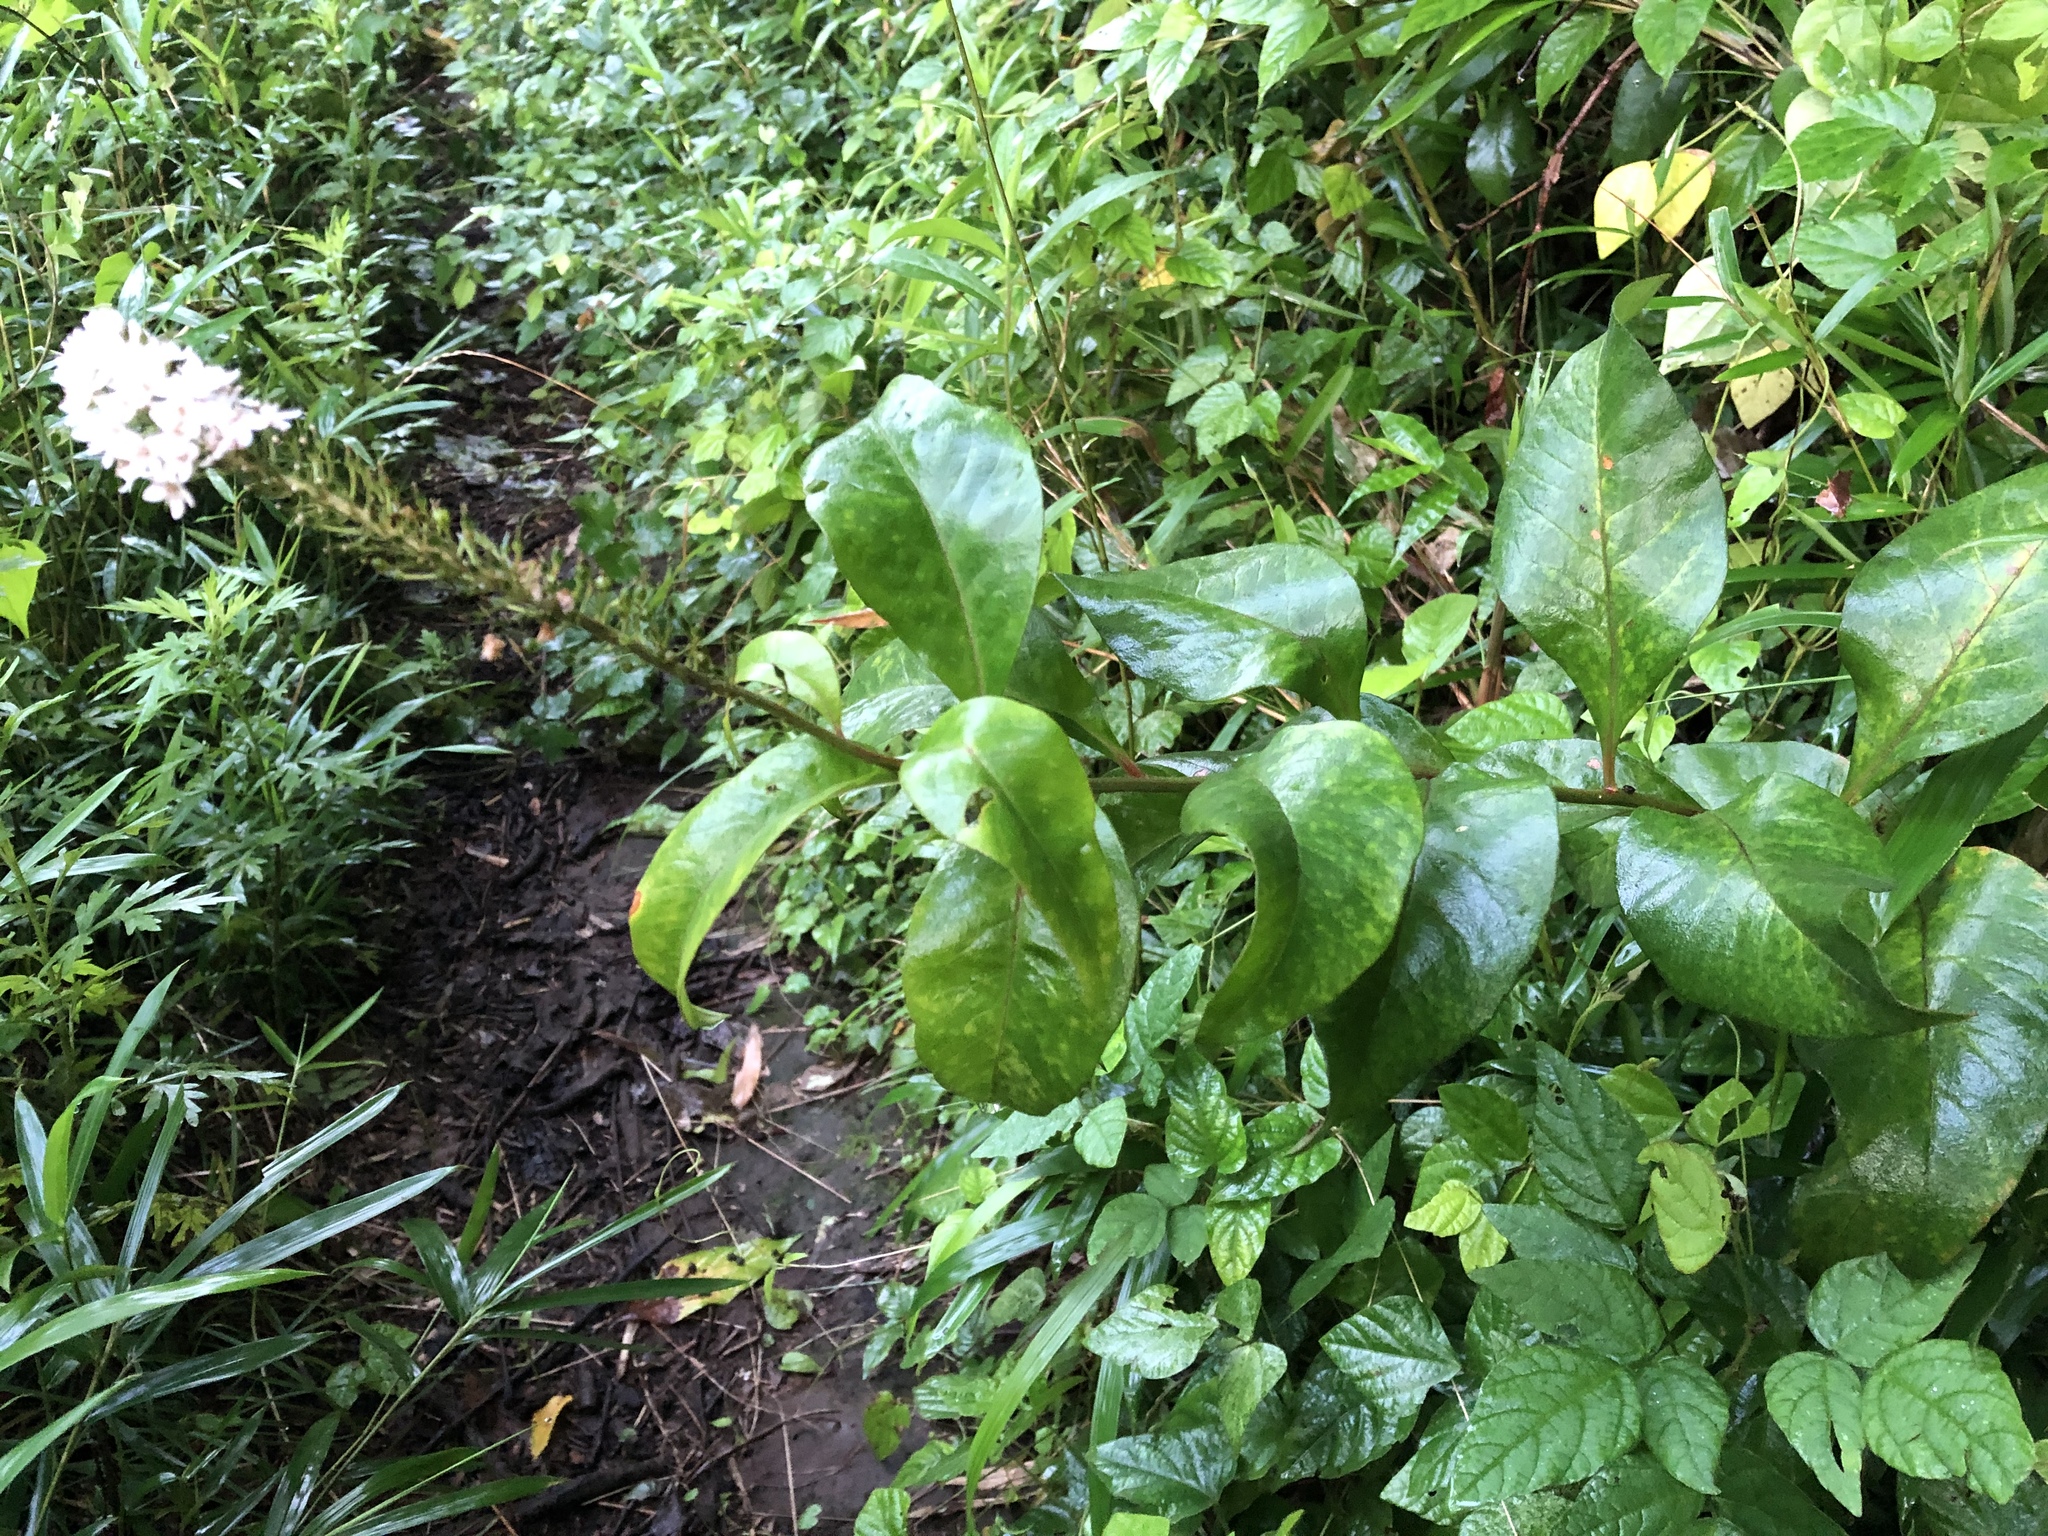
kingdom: Plantae
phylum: Tracheophyta
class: Magnoliopsida
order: Ericales
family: Primulaceae
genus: Lysimachia
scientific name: Lysimachia clethroides
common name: Gooseneck loosestrife
